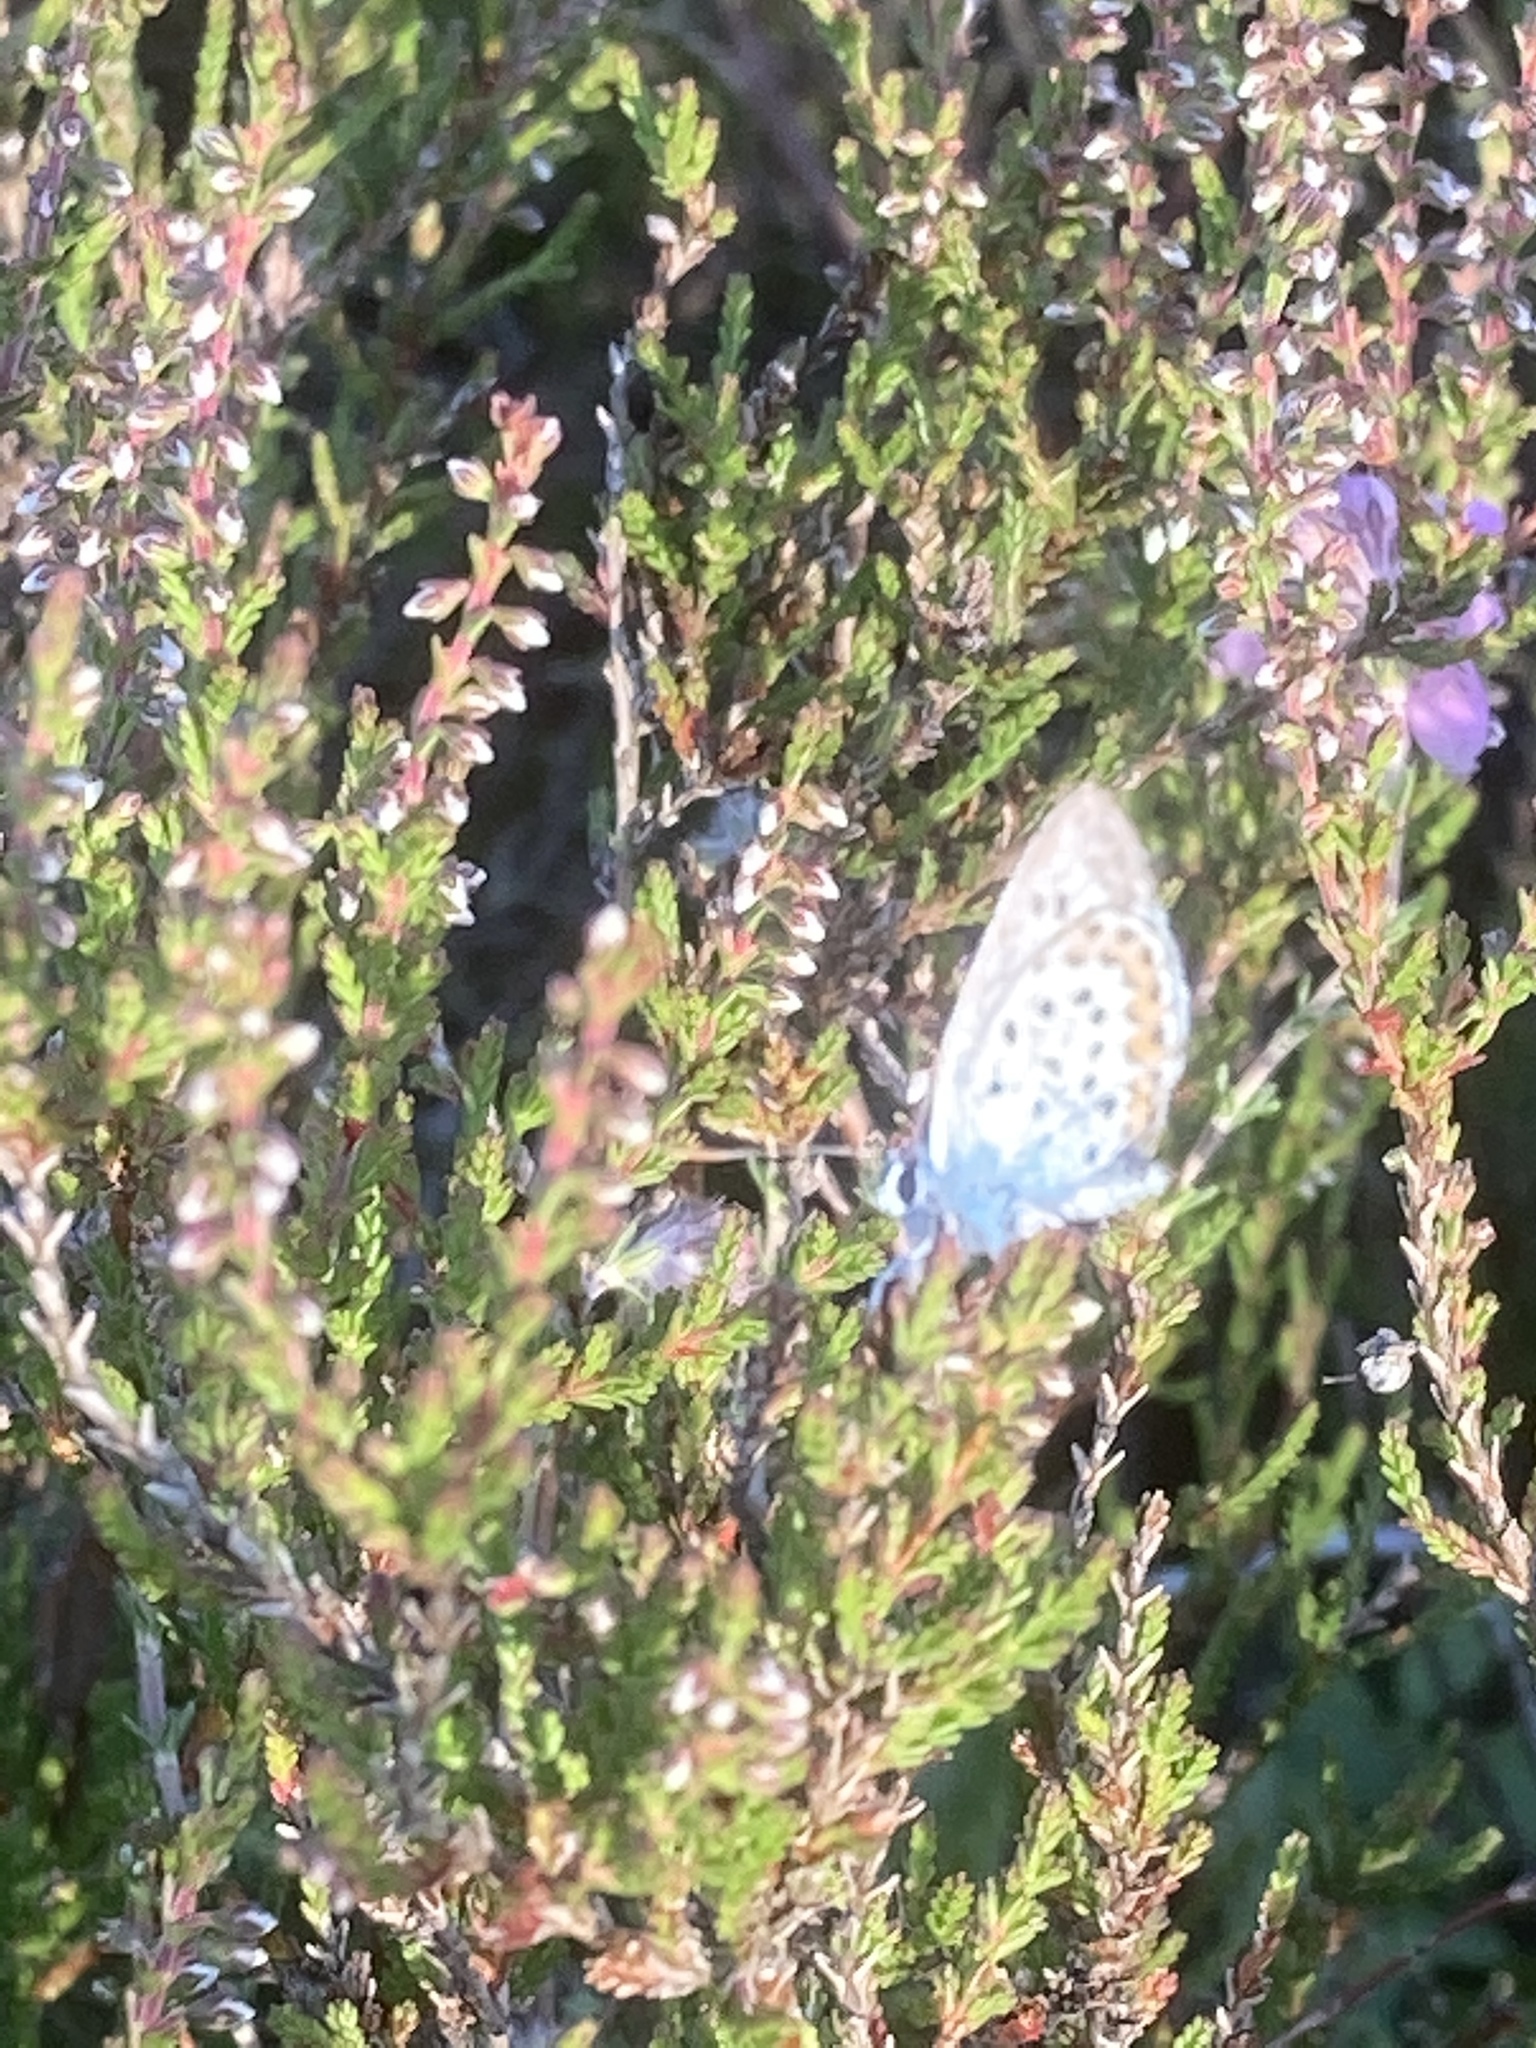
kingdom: Animalia
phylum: Arthropoda
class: Insecta
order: Lepidoptera
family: Lycaenidae
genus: Plebejus
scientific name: Plebejus argus
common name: Silver-studded blue
